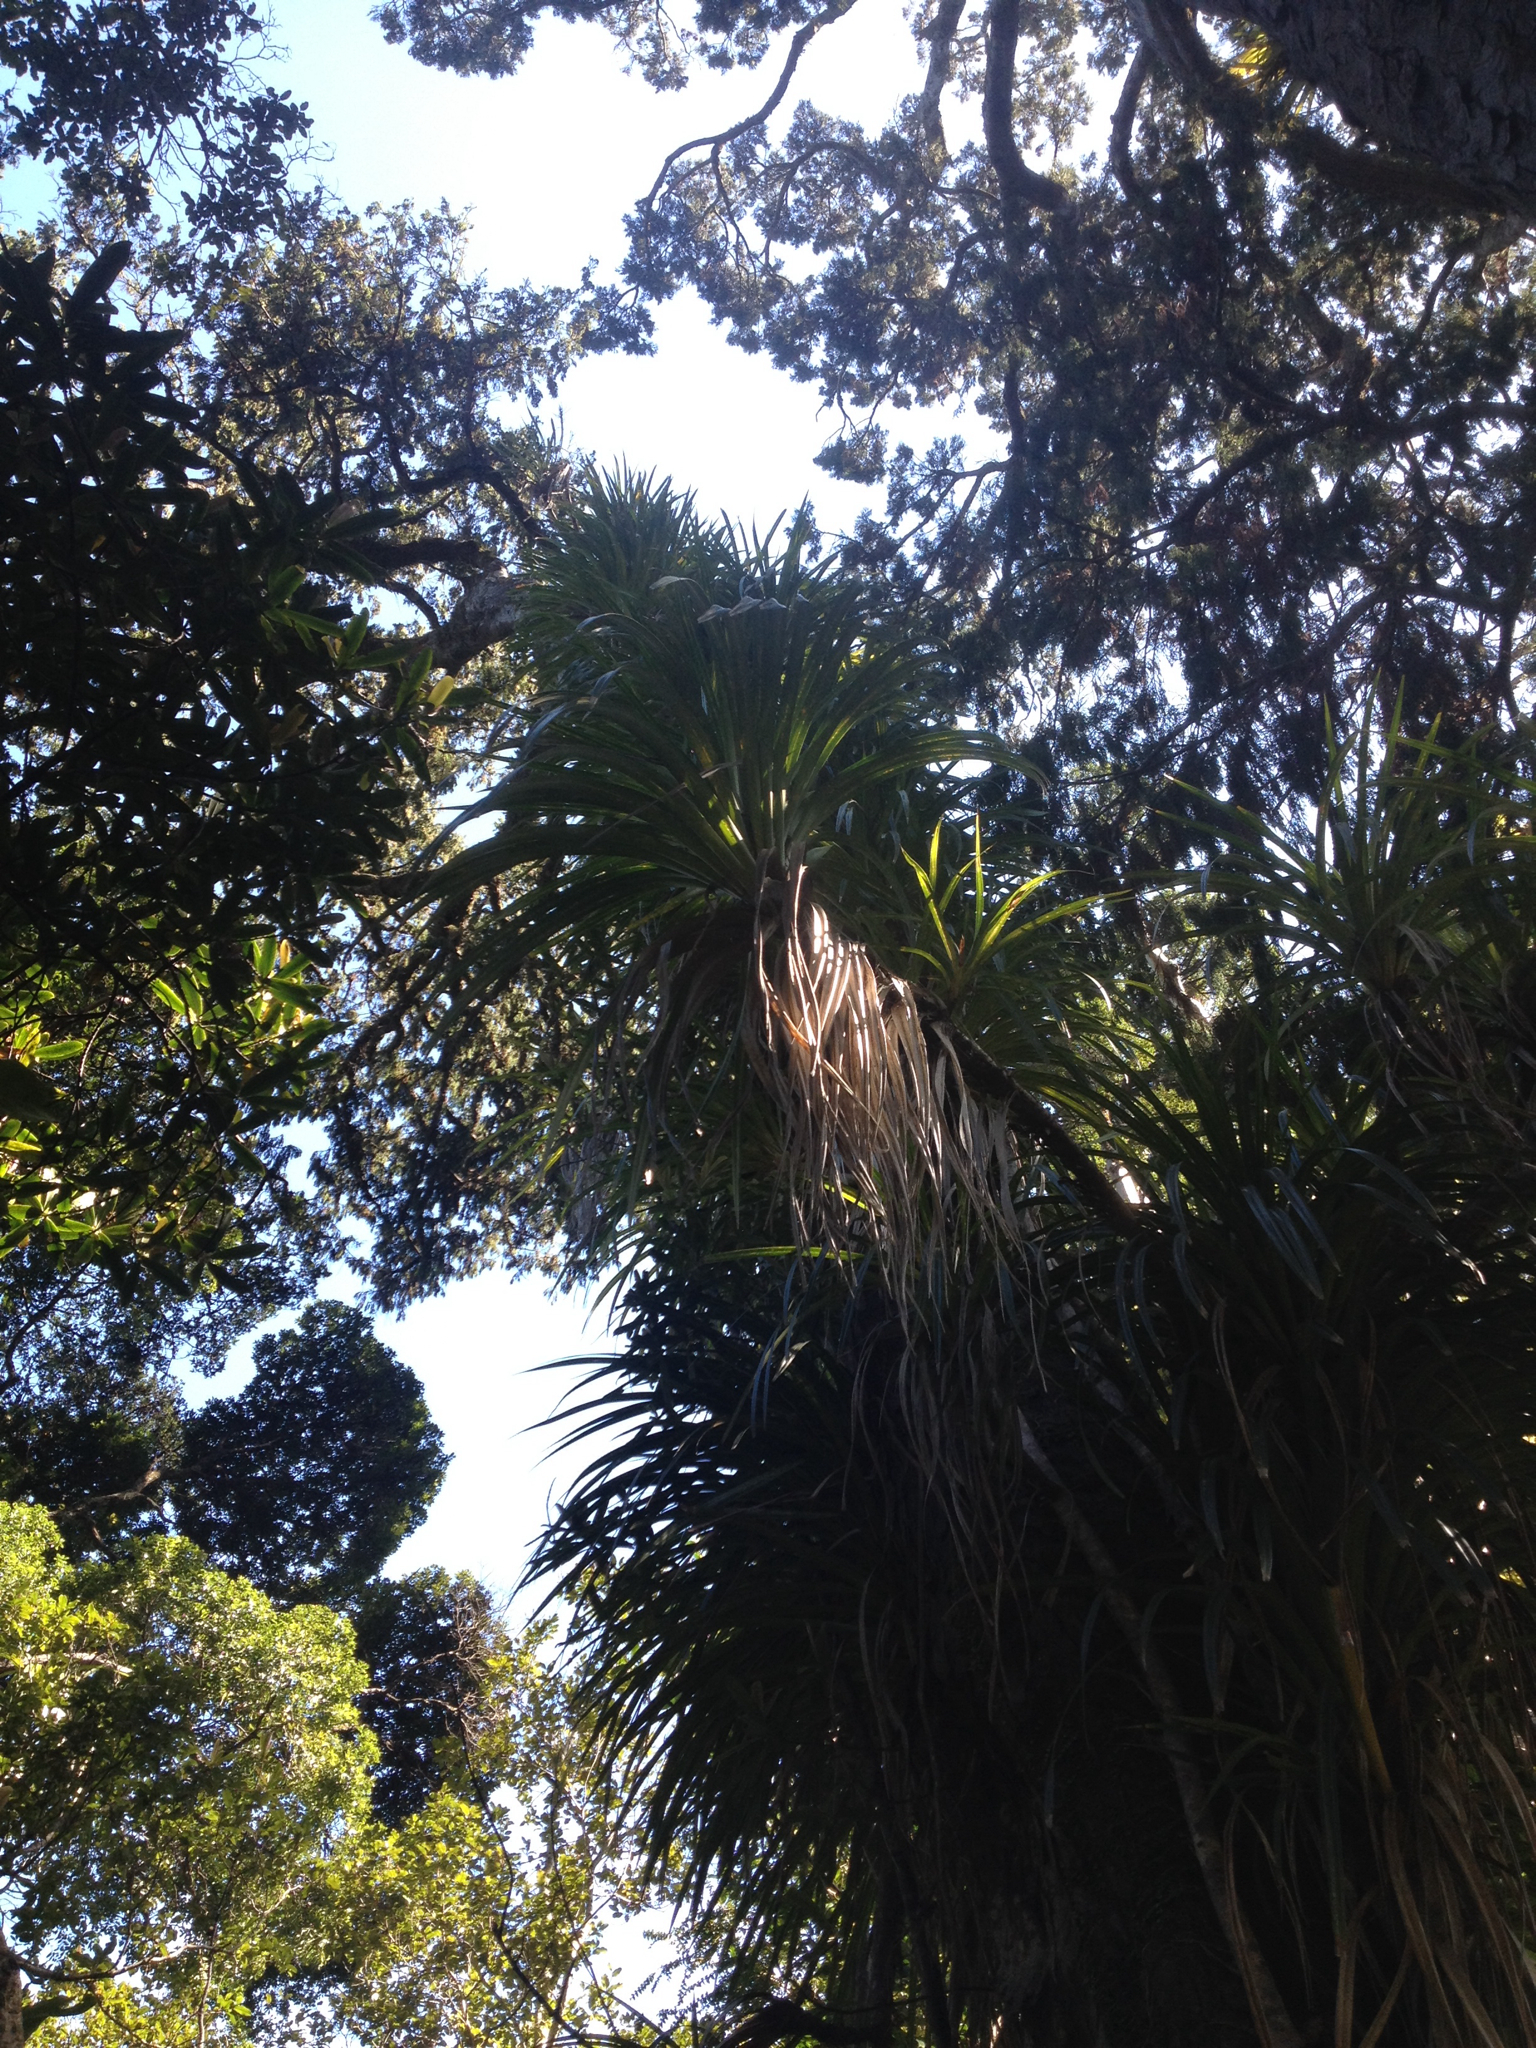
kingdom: Plantae
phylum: Tracheophyta
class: Liliopsida
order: Pandanales
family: Pandanaceae
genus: Freycinetia
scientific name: Freycinetia banksii
